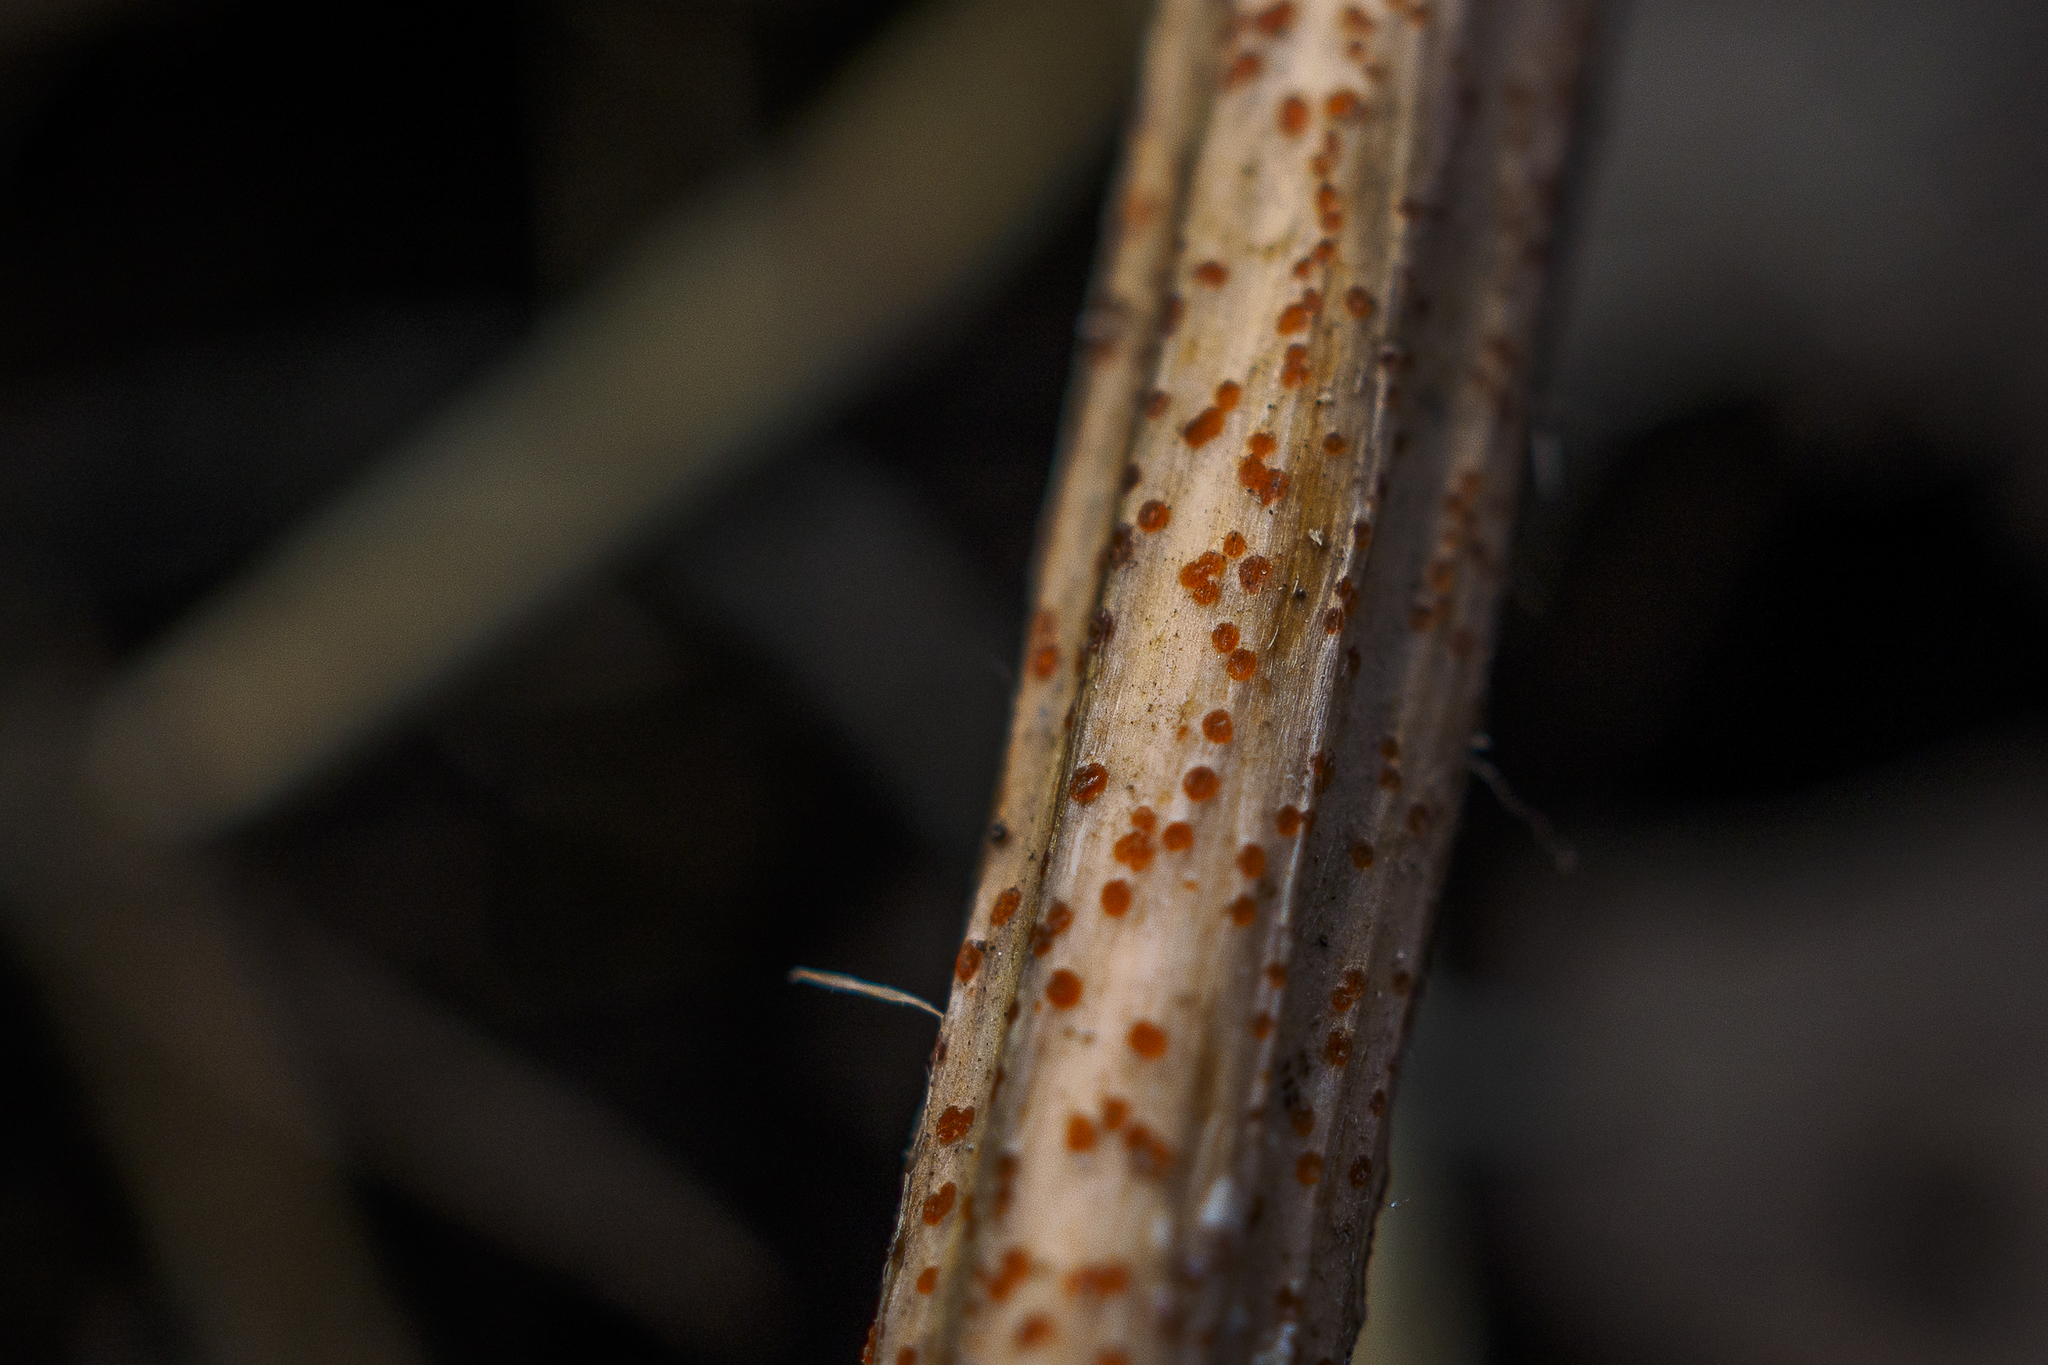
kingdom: Fungi
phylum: Ascomycota
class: Leotiomycetes
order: Helotiales
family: Calloriaceae
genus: Calloria
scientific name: Calloria urticae
